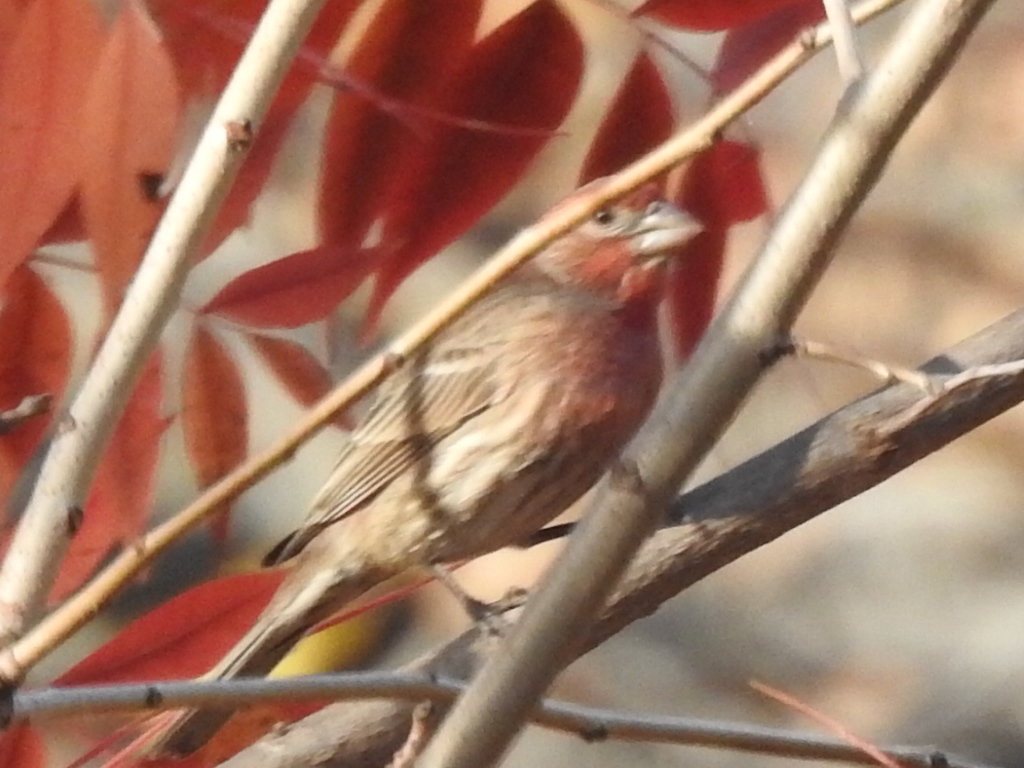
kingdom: Animalia
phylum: Chordata
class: Aves
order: Passeriformes
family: Fringillidae
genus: Haemorhous
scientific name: Haemorhous mexicanus
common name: House finch
